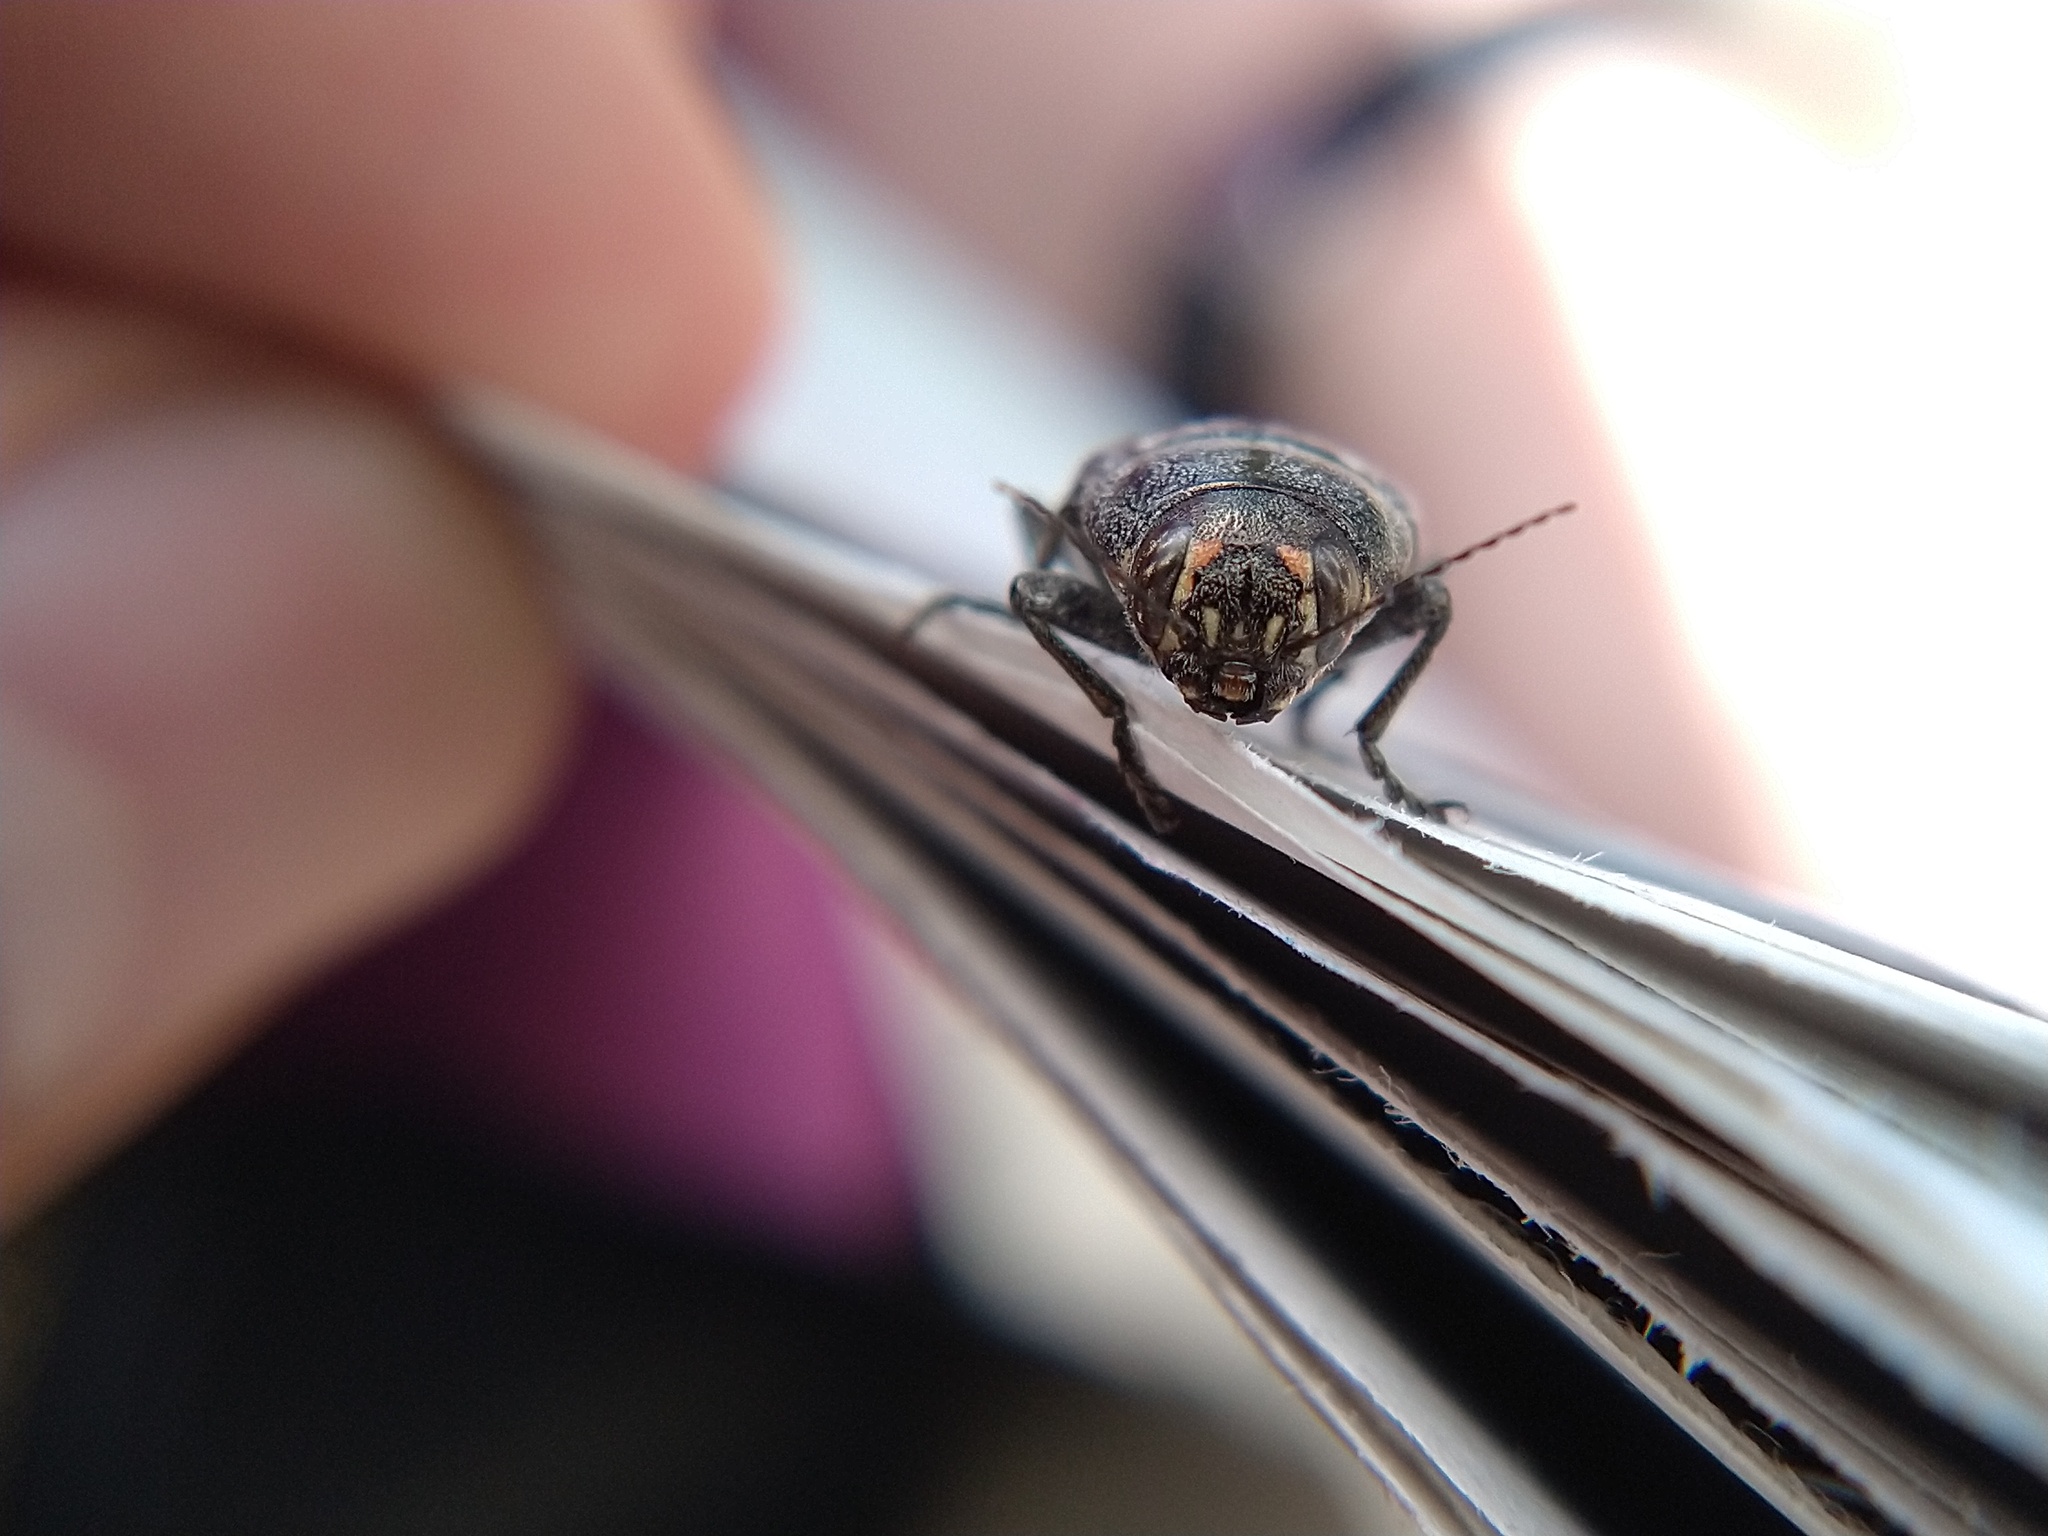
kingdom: Animalia
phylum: Arthropoda
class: Insecta
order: Coleoptera
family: Buprestidae
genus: Buprestis
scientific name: Buprestis lyrata
